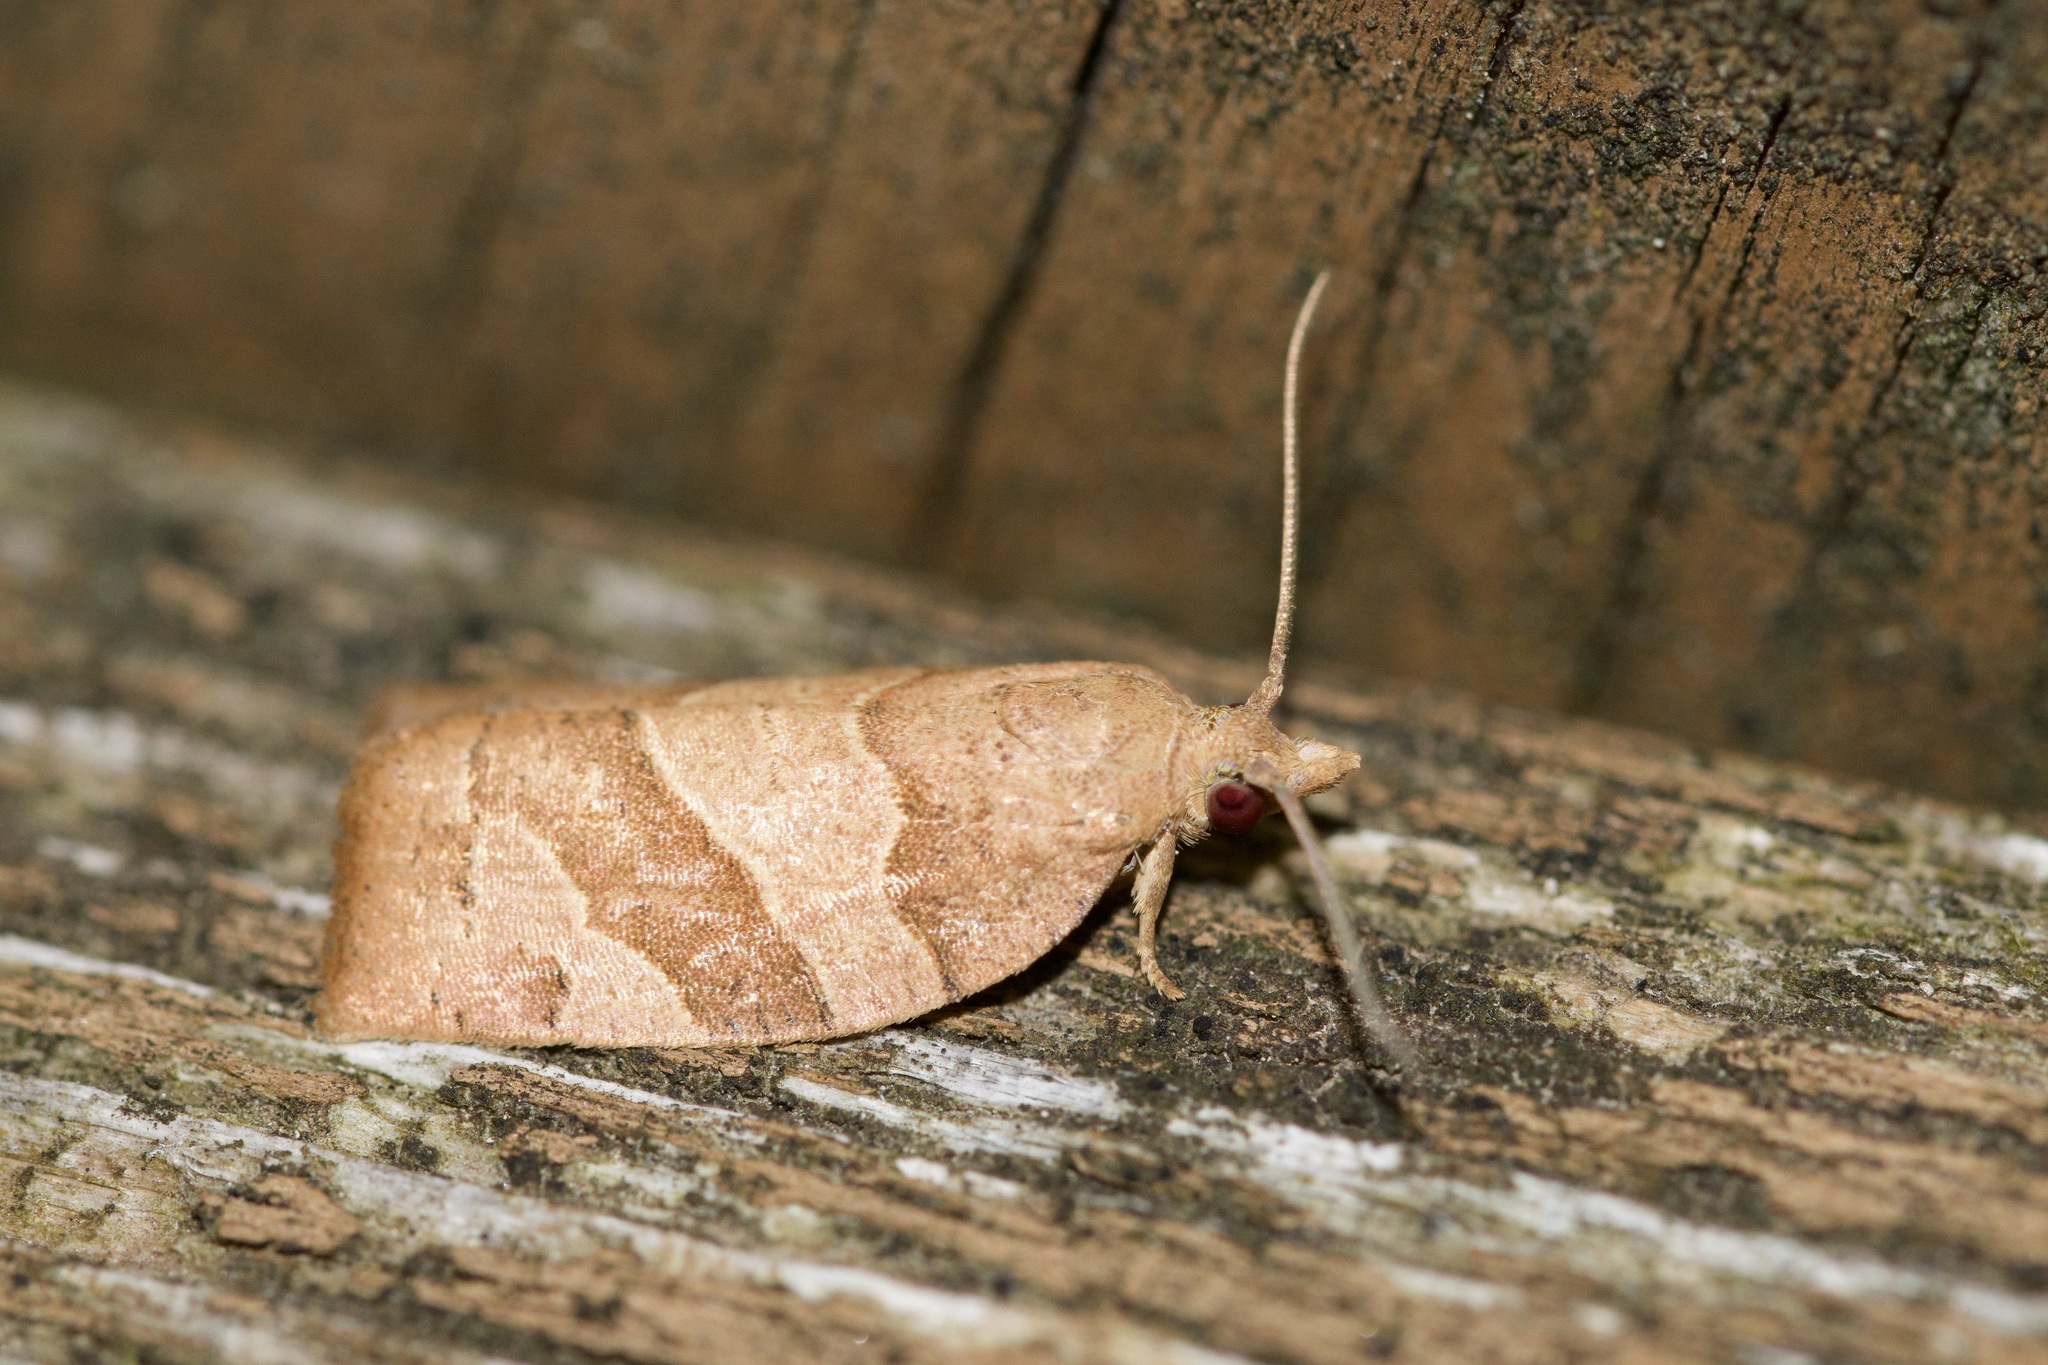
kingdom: Animalia
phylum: Arthropoda
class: Insecta
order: Lepidoptera
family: Tortricidae
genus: Pandemis
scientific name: Pandemis lamprosana
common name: Woodgrain leafroller moth
